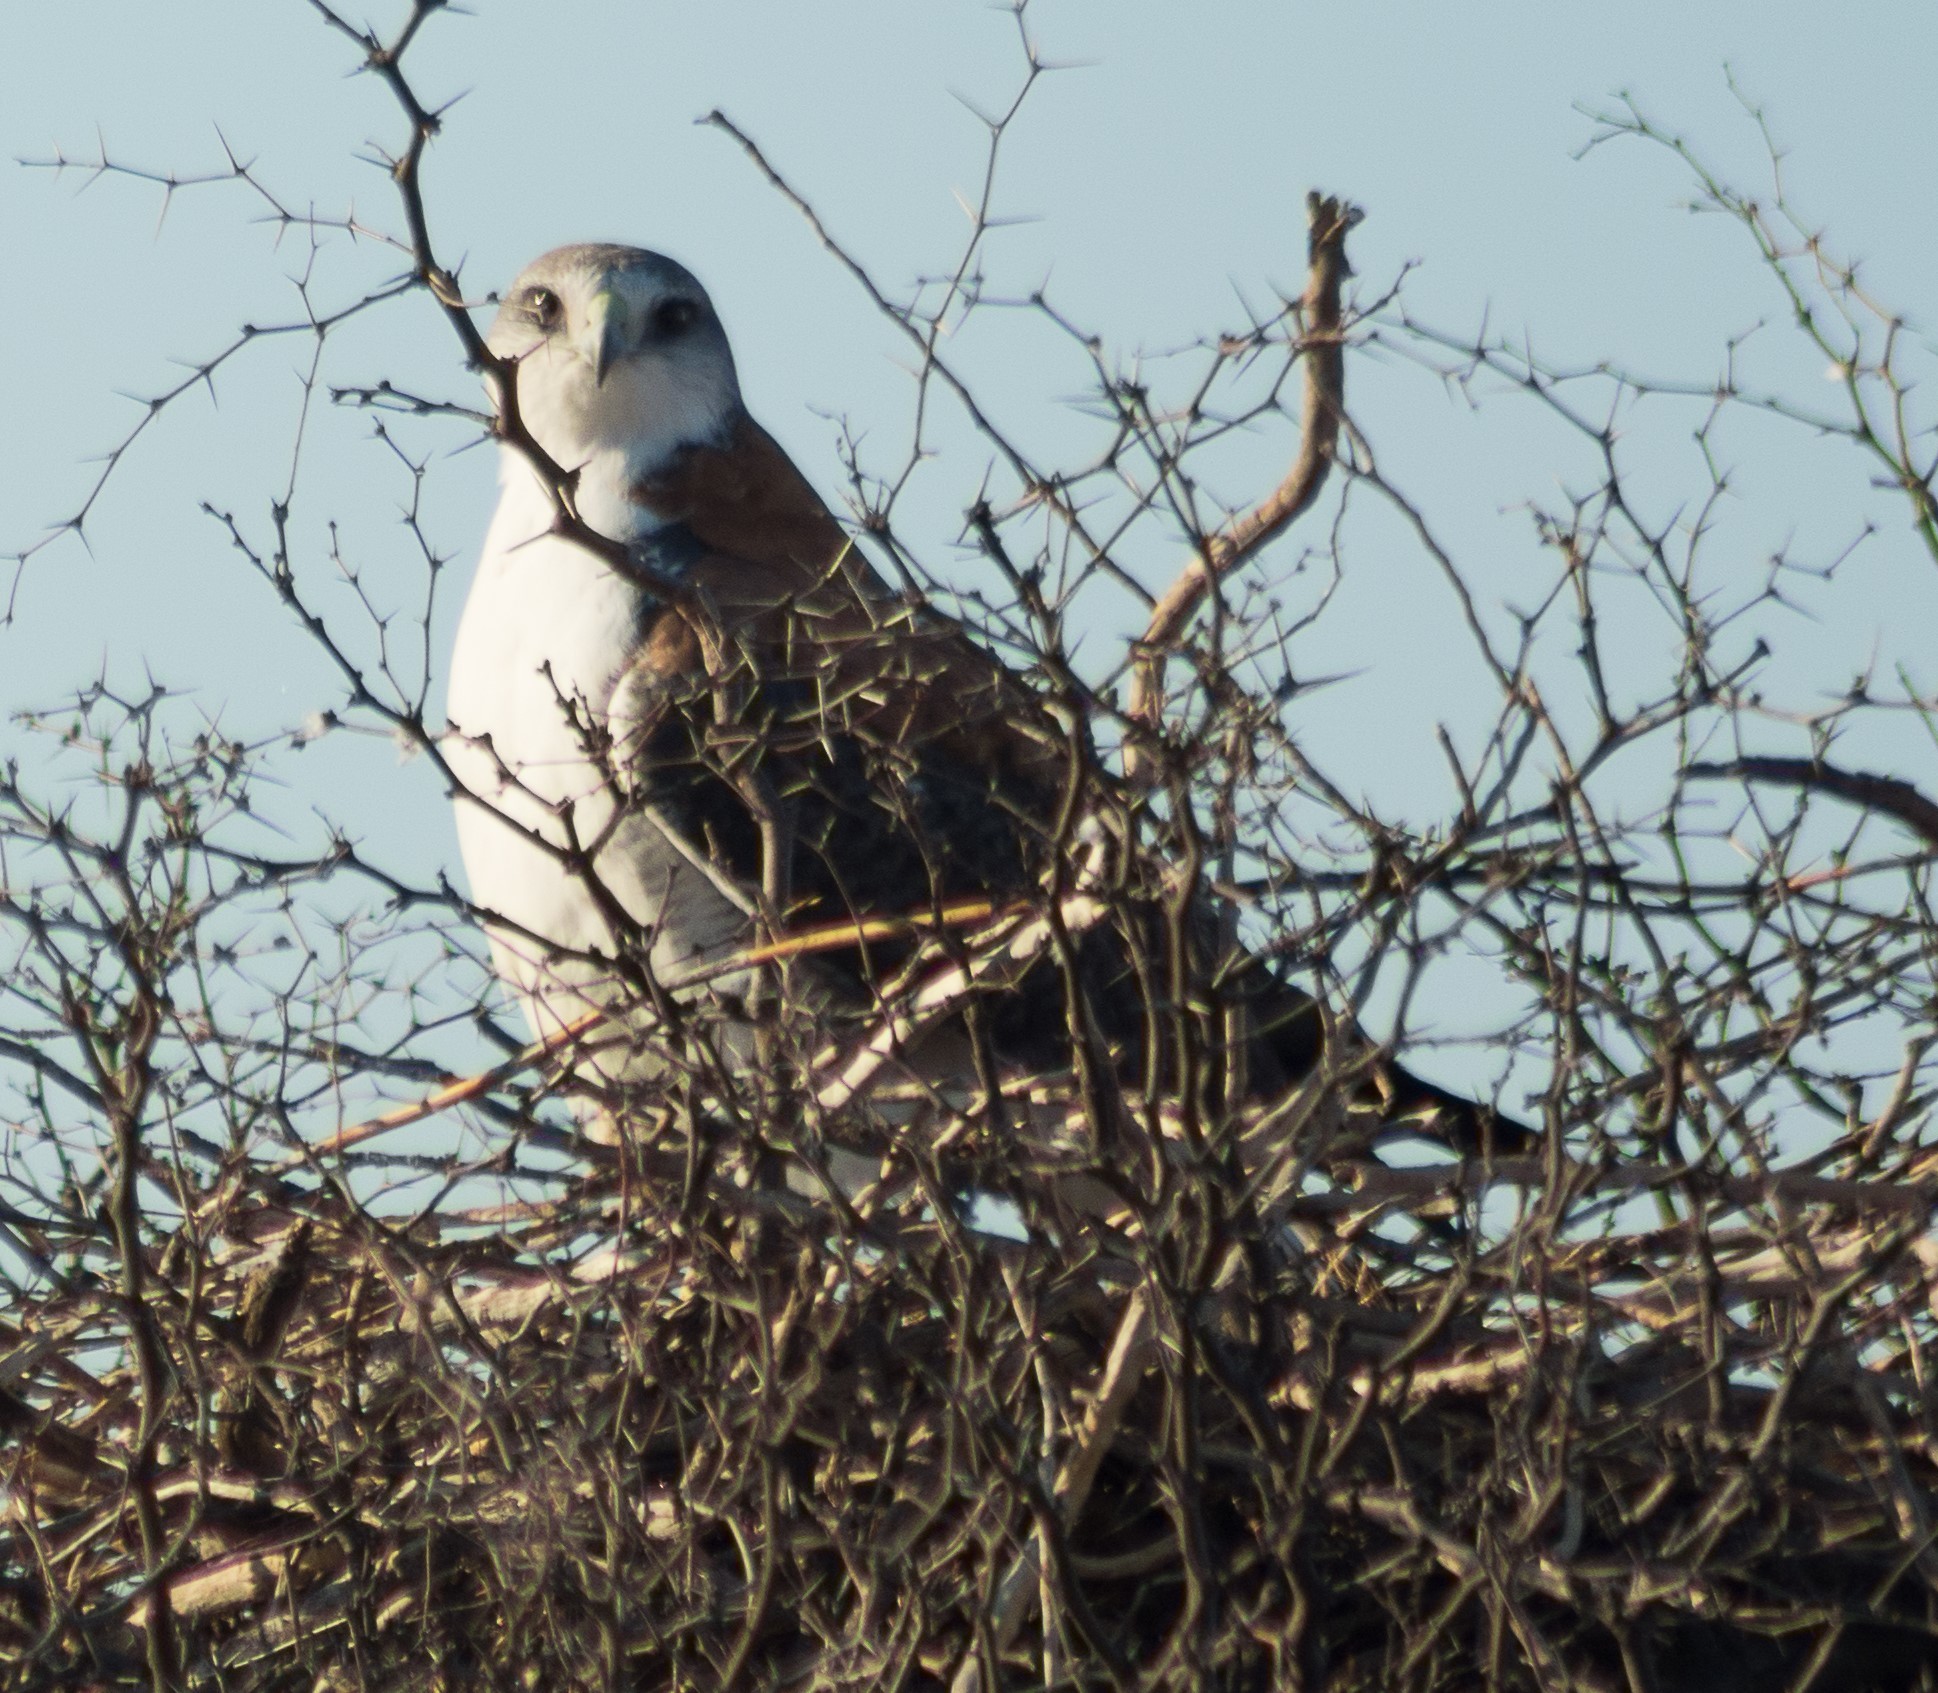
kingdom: Animalia
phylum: Chordata
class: Aves
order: Accipitriformes
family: Accipitridae
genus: Buteo
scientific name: Buteo polyosoma
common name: Variable hawk
